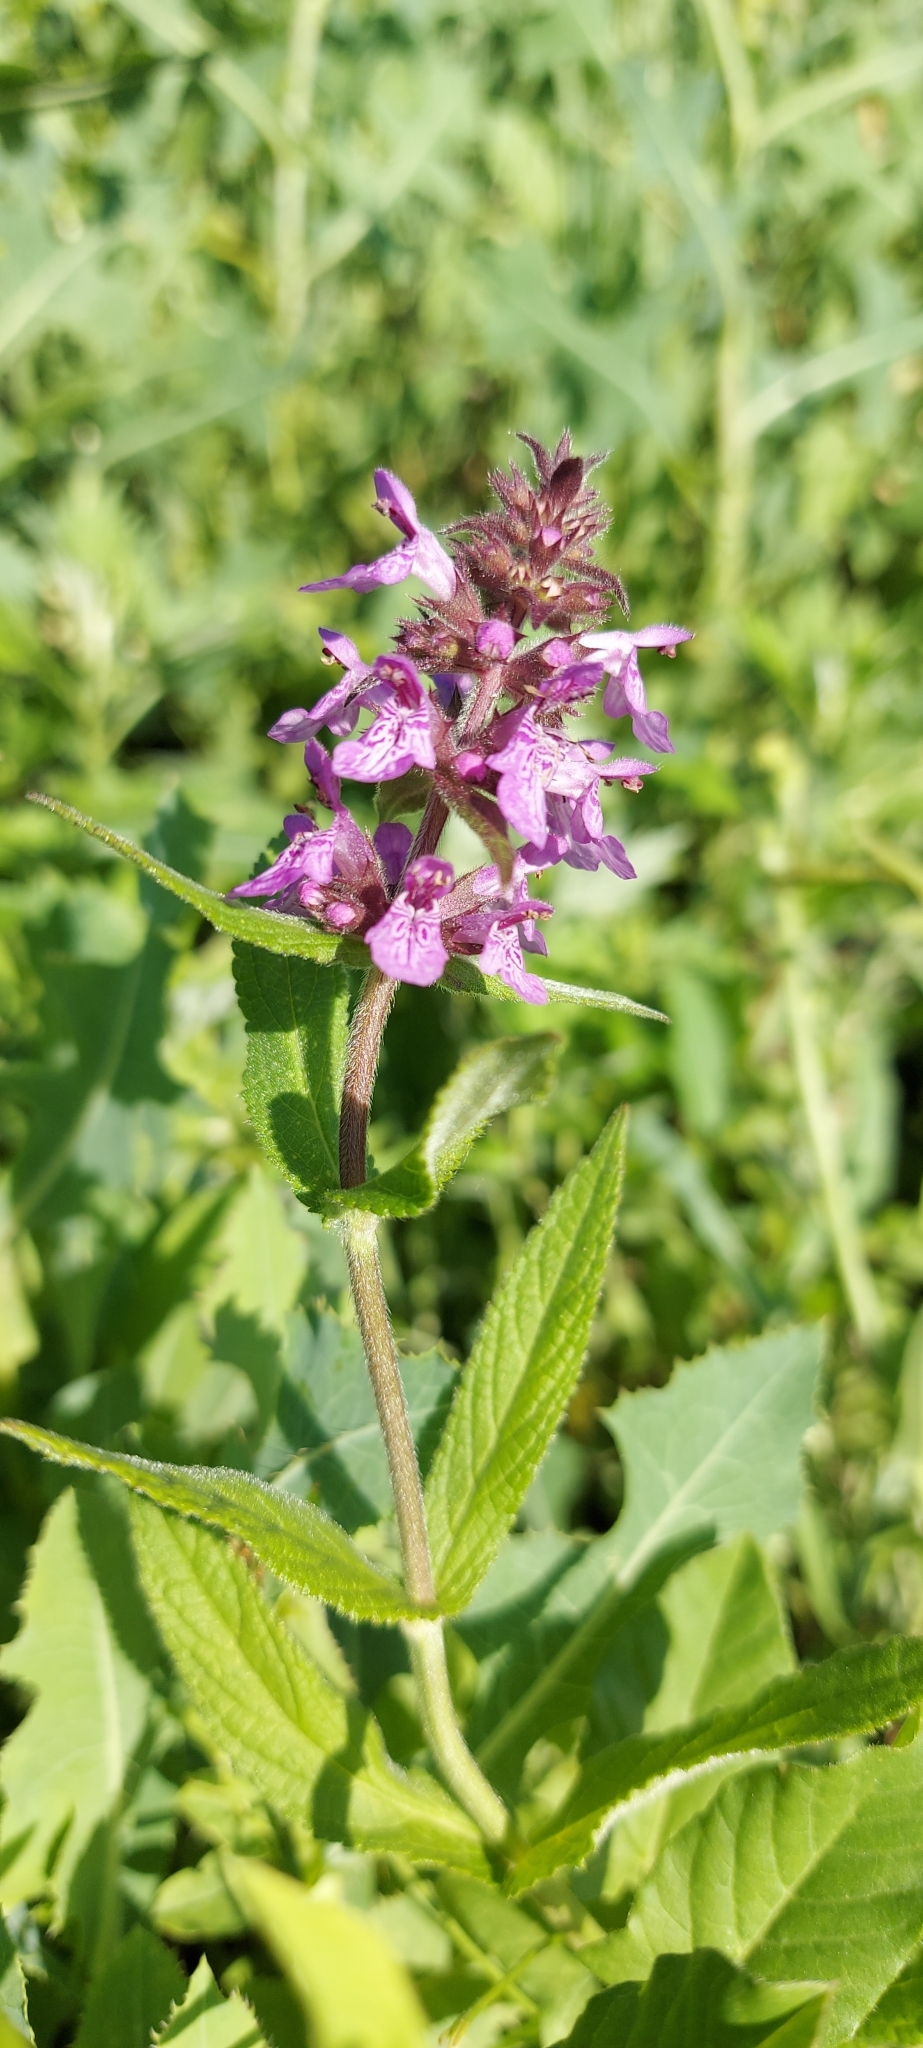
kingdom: Plantae
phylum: Tracheophyta
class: Magnoliopsida
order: Lamiales
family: Lamiaceae
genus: Stachys
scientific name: Stachys palustris
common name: Marsh woundwort
